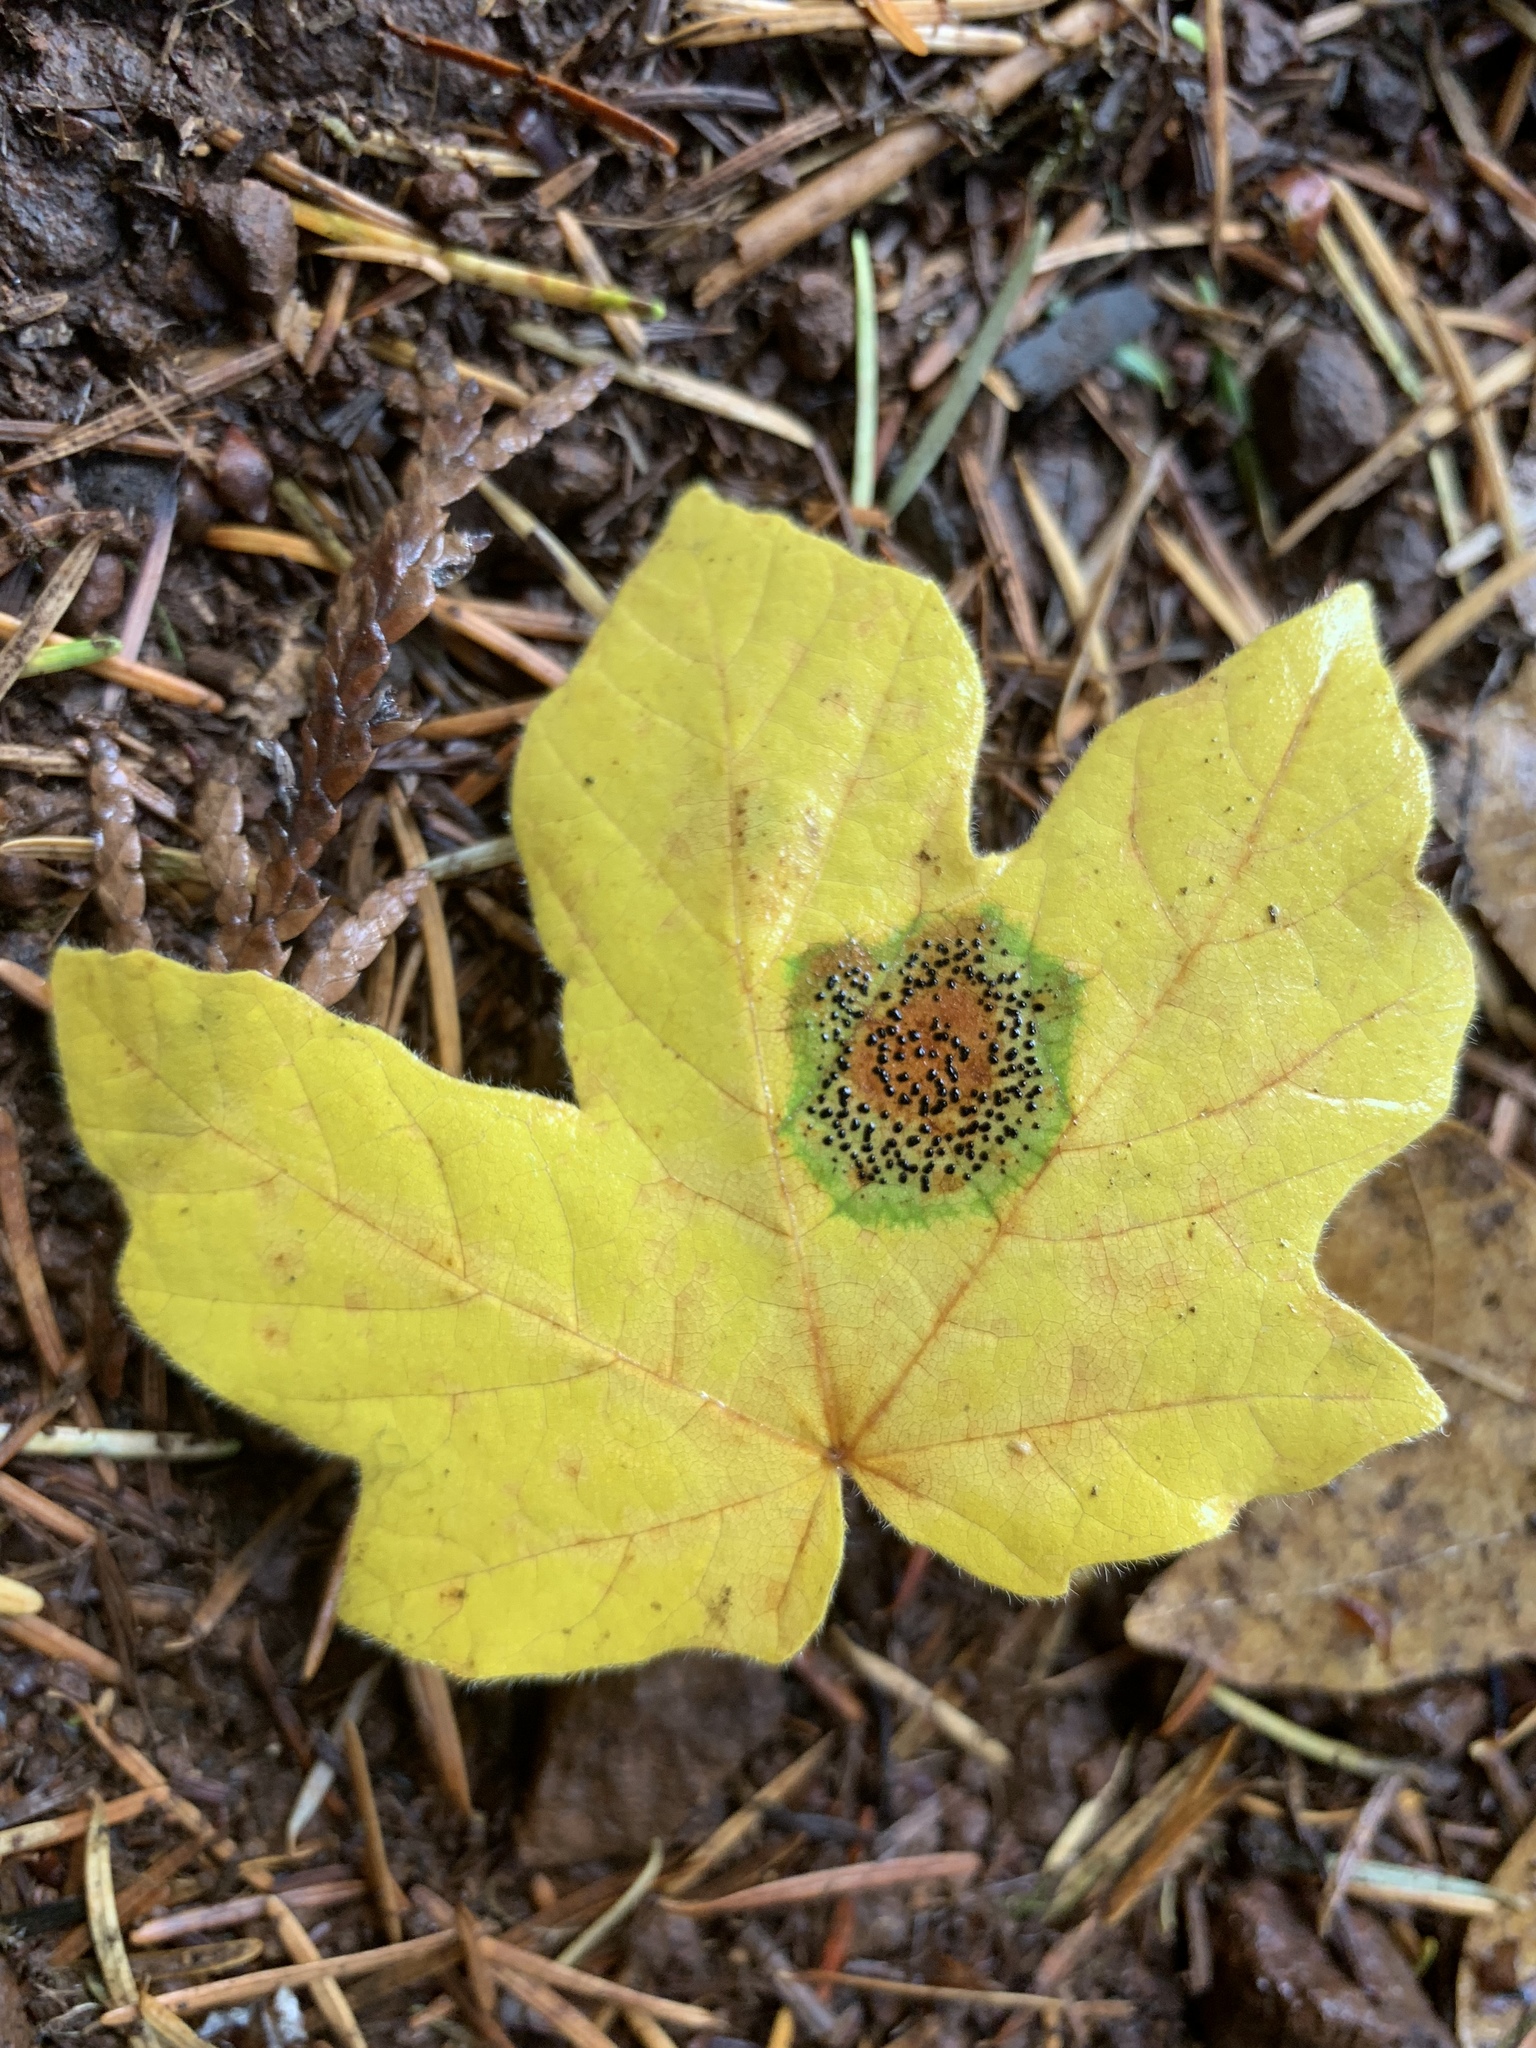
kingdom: Fungi
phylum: Ascomycota
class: Leotiomycetes
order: Rhytismatales
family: Rhytismataceae
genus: Rhytisma
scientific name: Rhytisma punctatum
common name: Speckled tar spot
